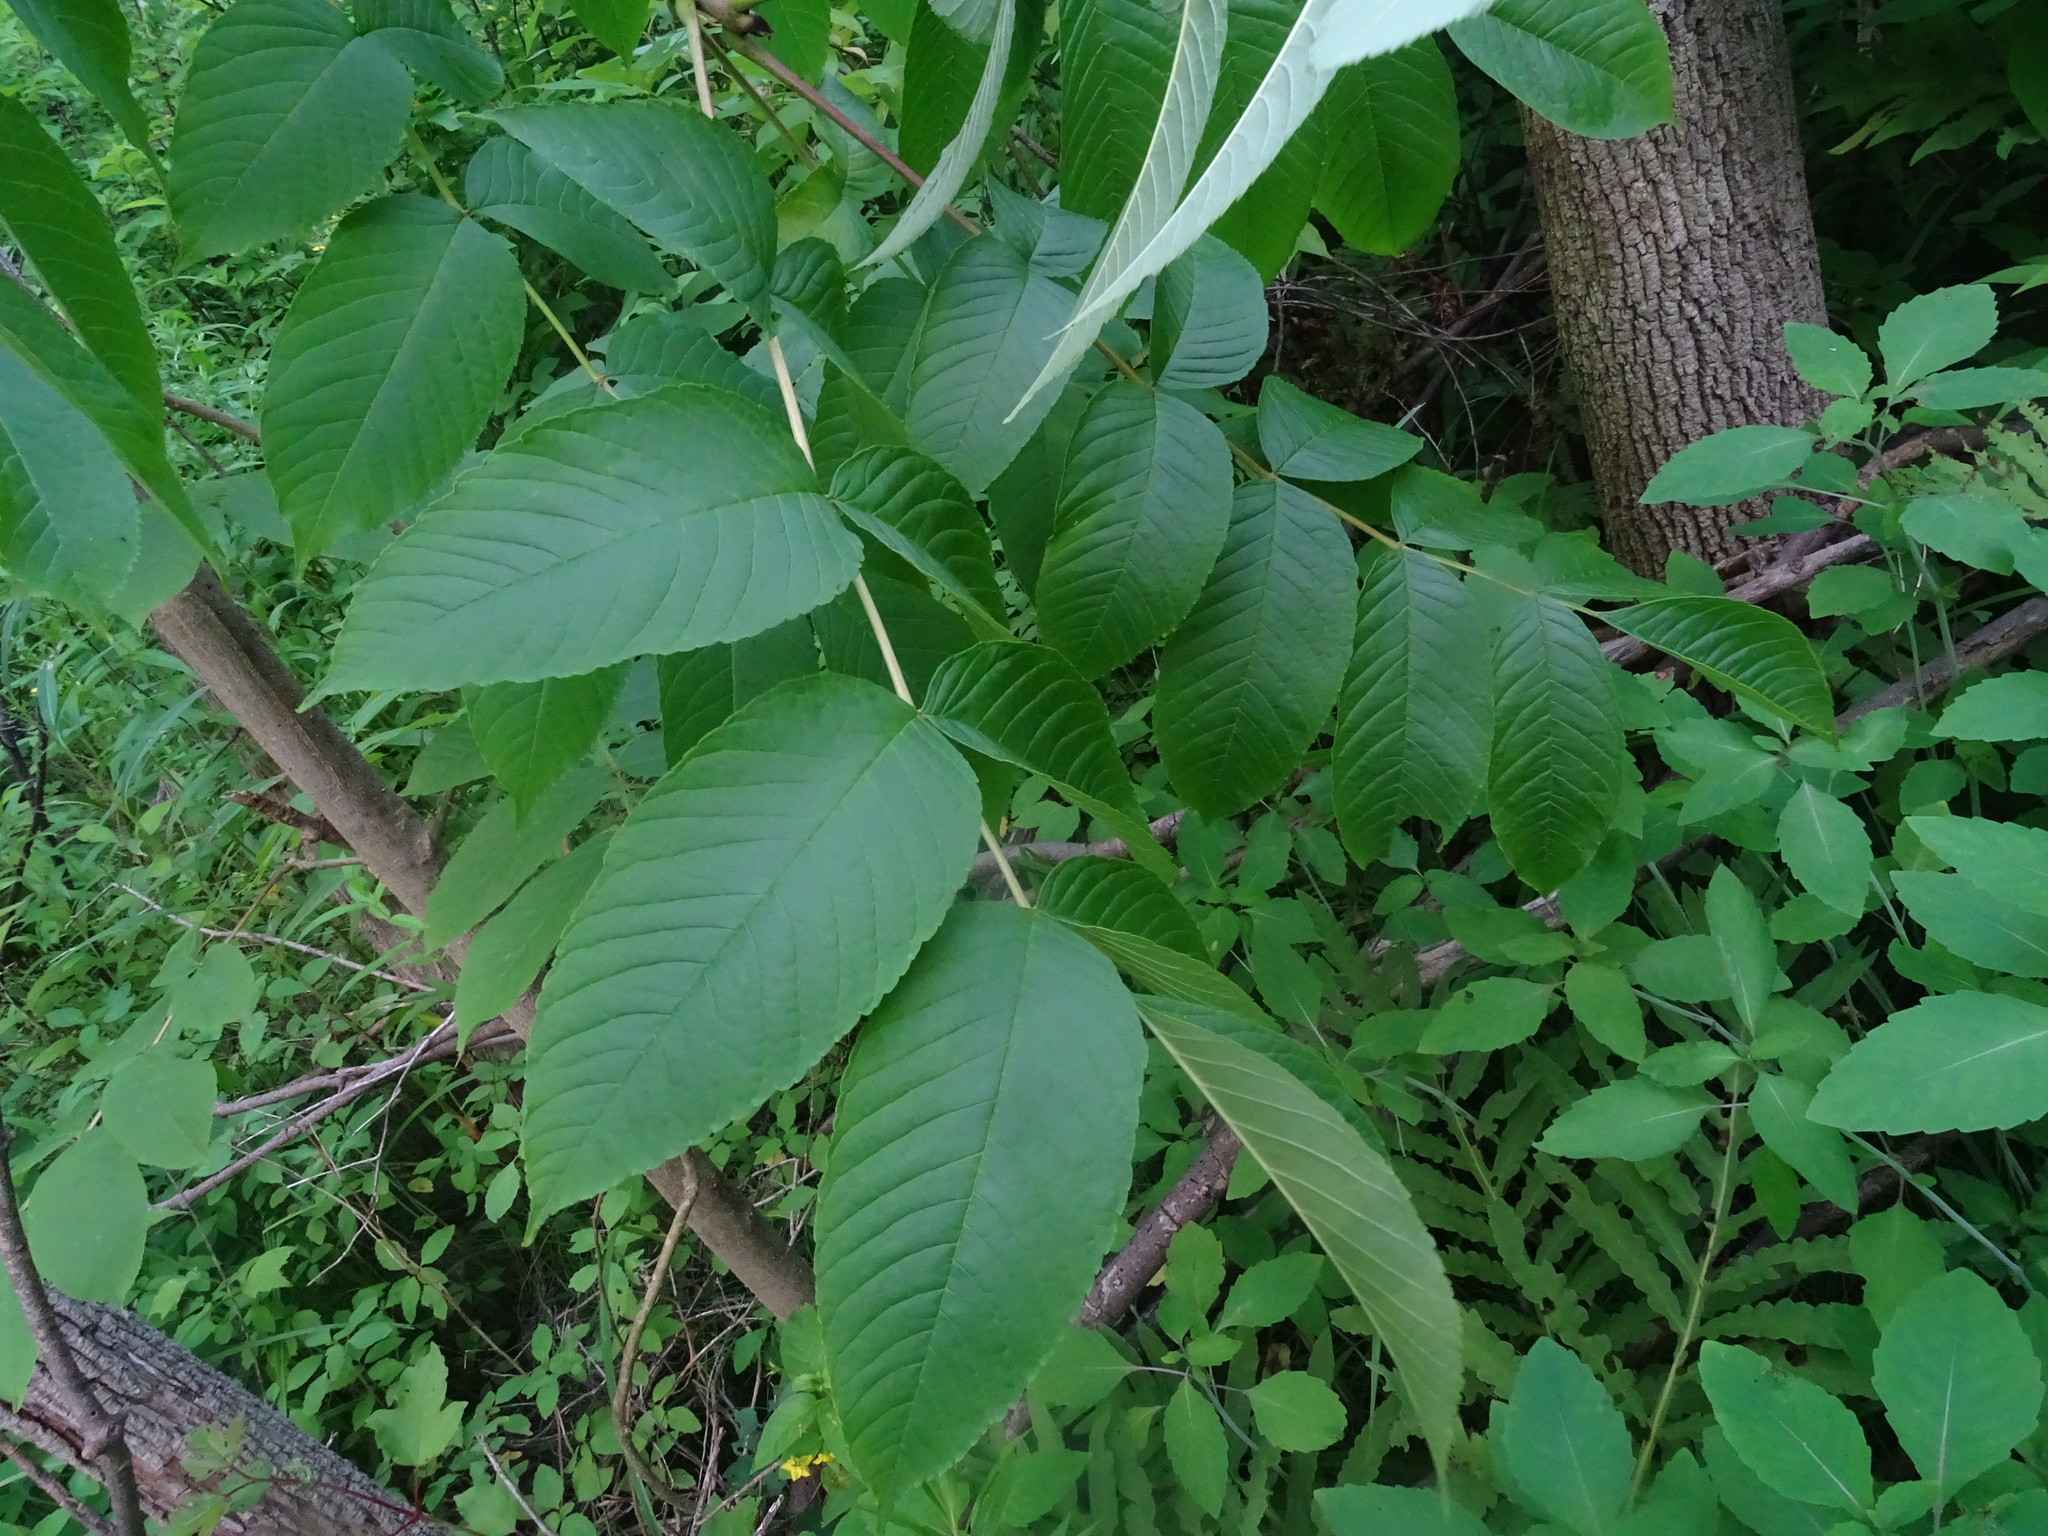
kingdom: Plantae
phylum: Tracheophyta
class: Magnoliopsida
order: Lamiales
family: Oleaceae
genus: Fraxinus
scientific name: Fraxinus nigra
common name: Black ash
